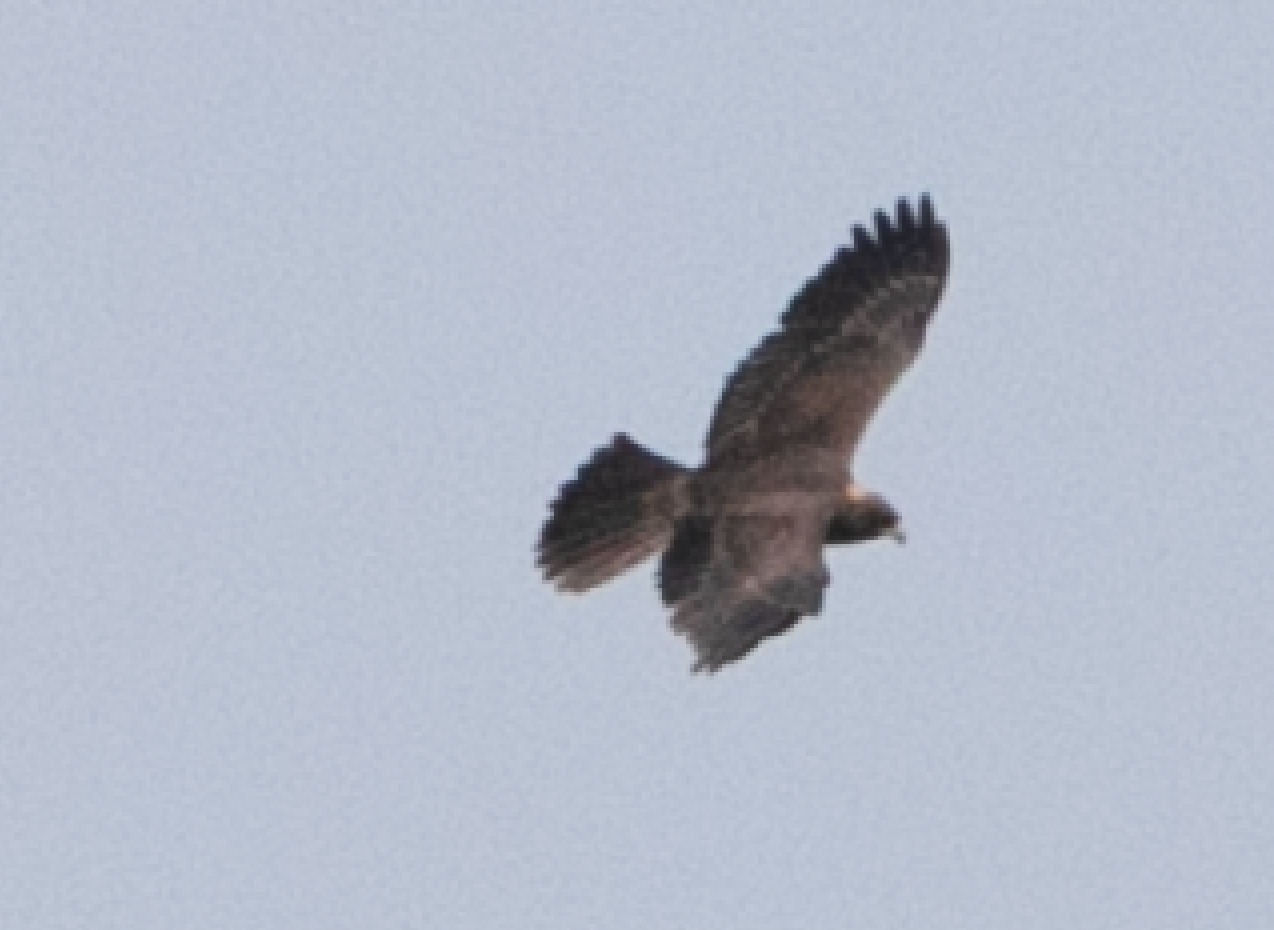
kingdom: Animalia
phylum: Chordata
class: Aves
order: Accipitriformes
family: Accipitridae
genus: Circus
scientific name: Circus aeruginosus
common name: Western marsh harrier
